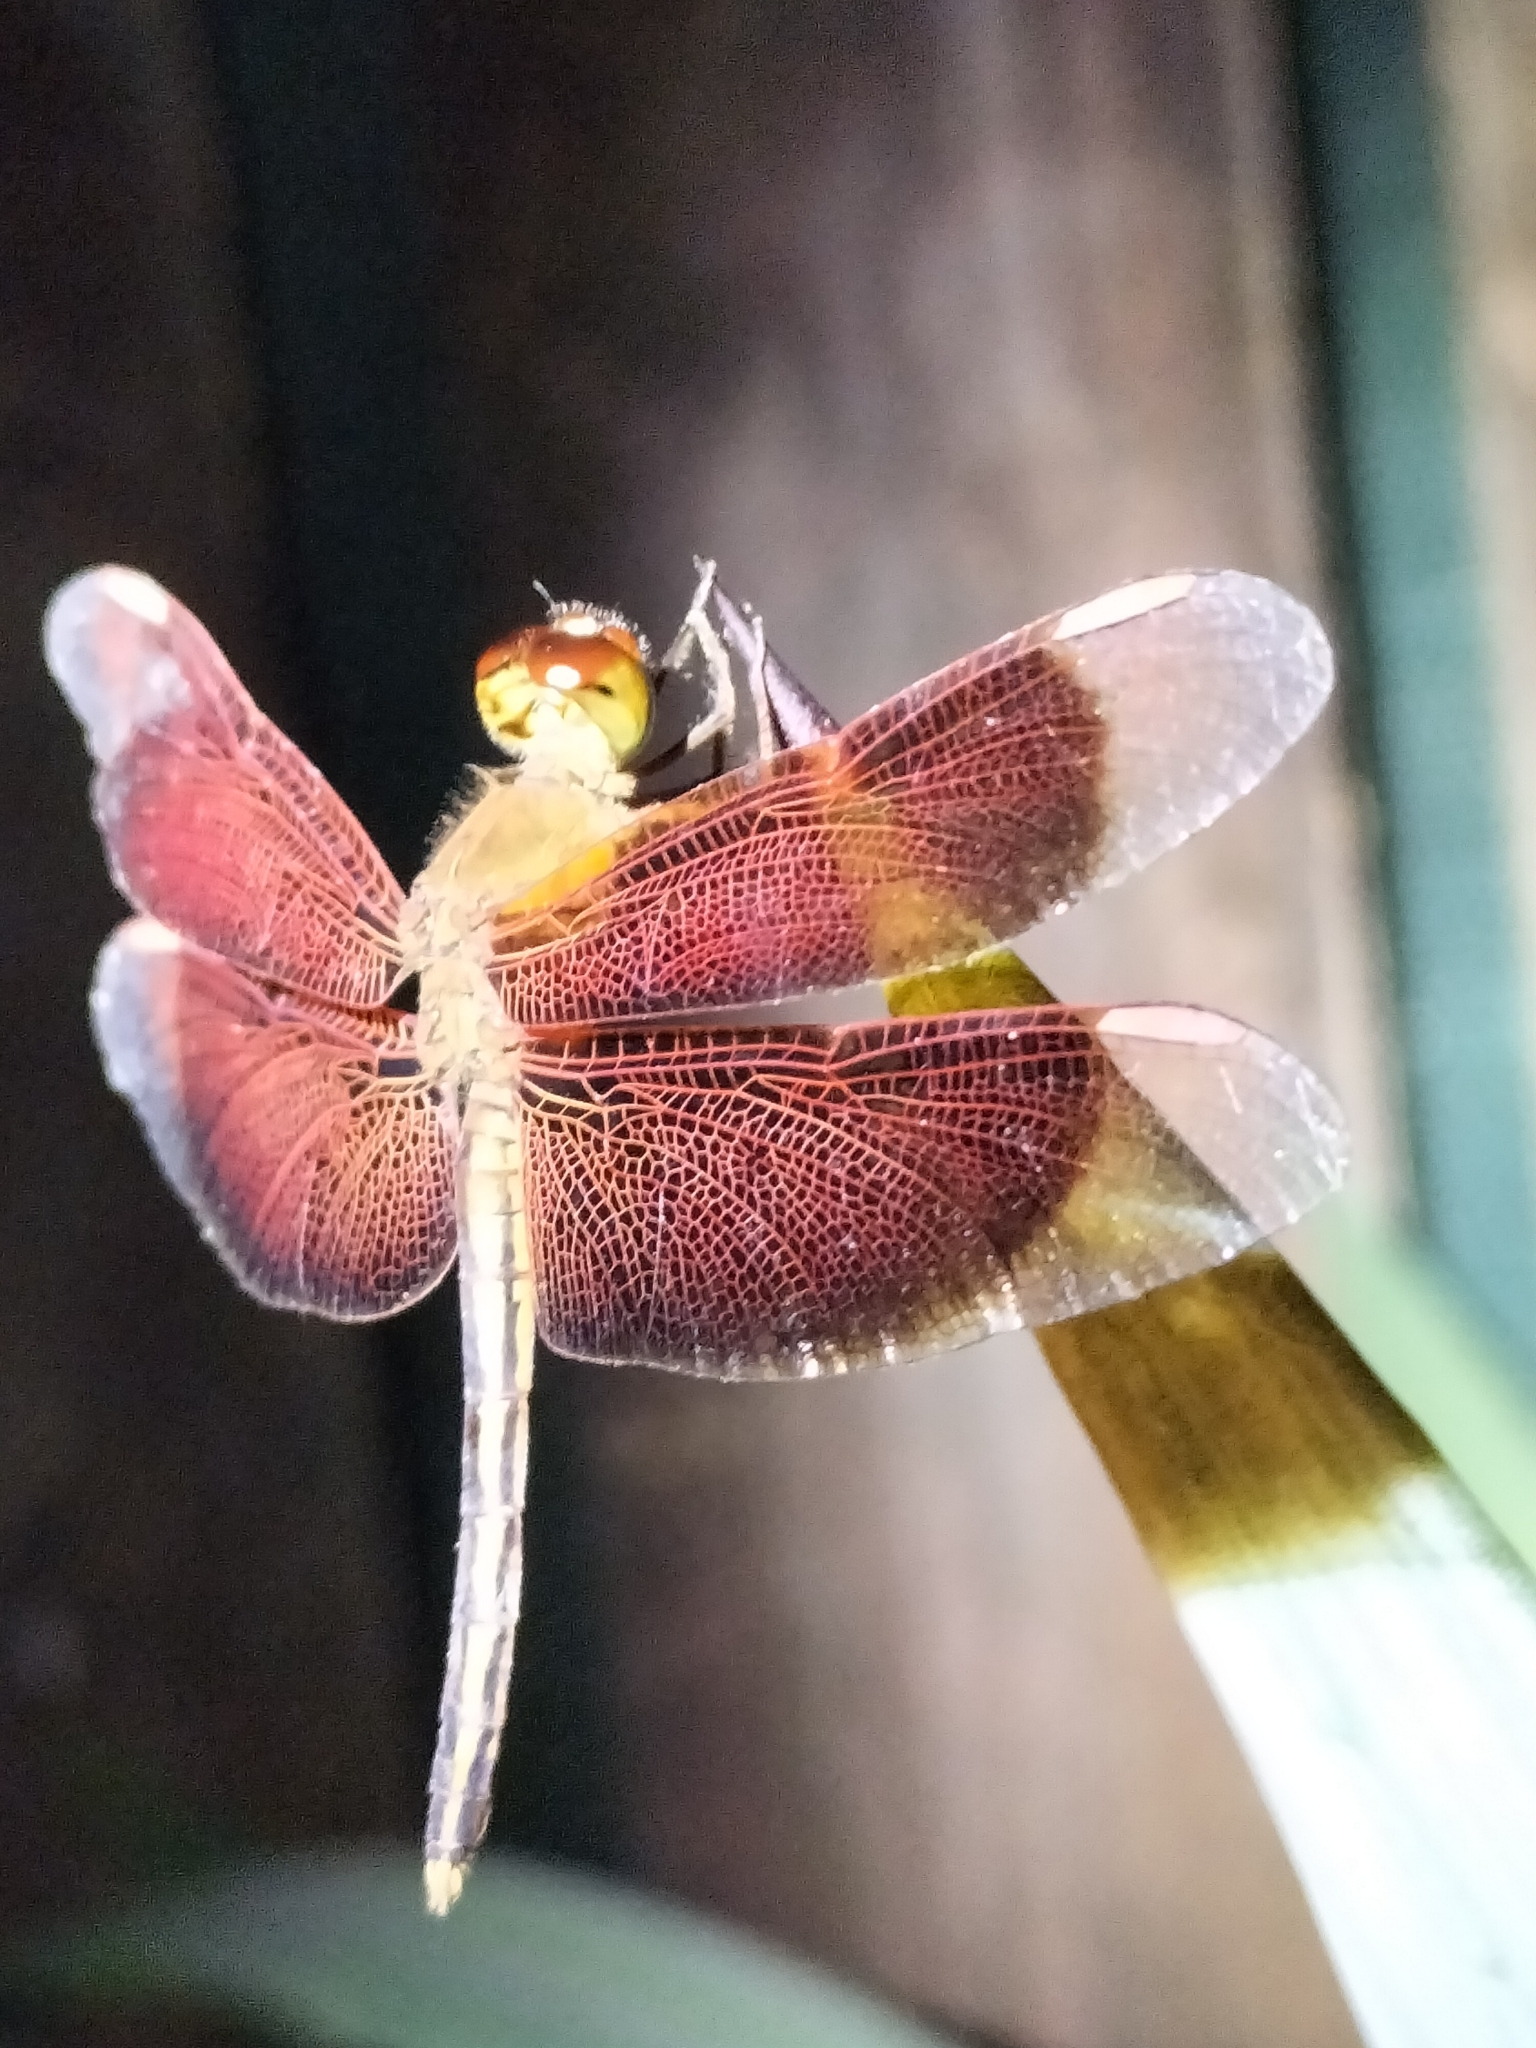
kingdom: Animalia
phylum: Arthropoda
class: Insecta
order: Odonata
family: Libellulidae
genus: Neurothemis
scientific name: Neurothemis stigmatizans
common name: Painted grasshawk
